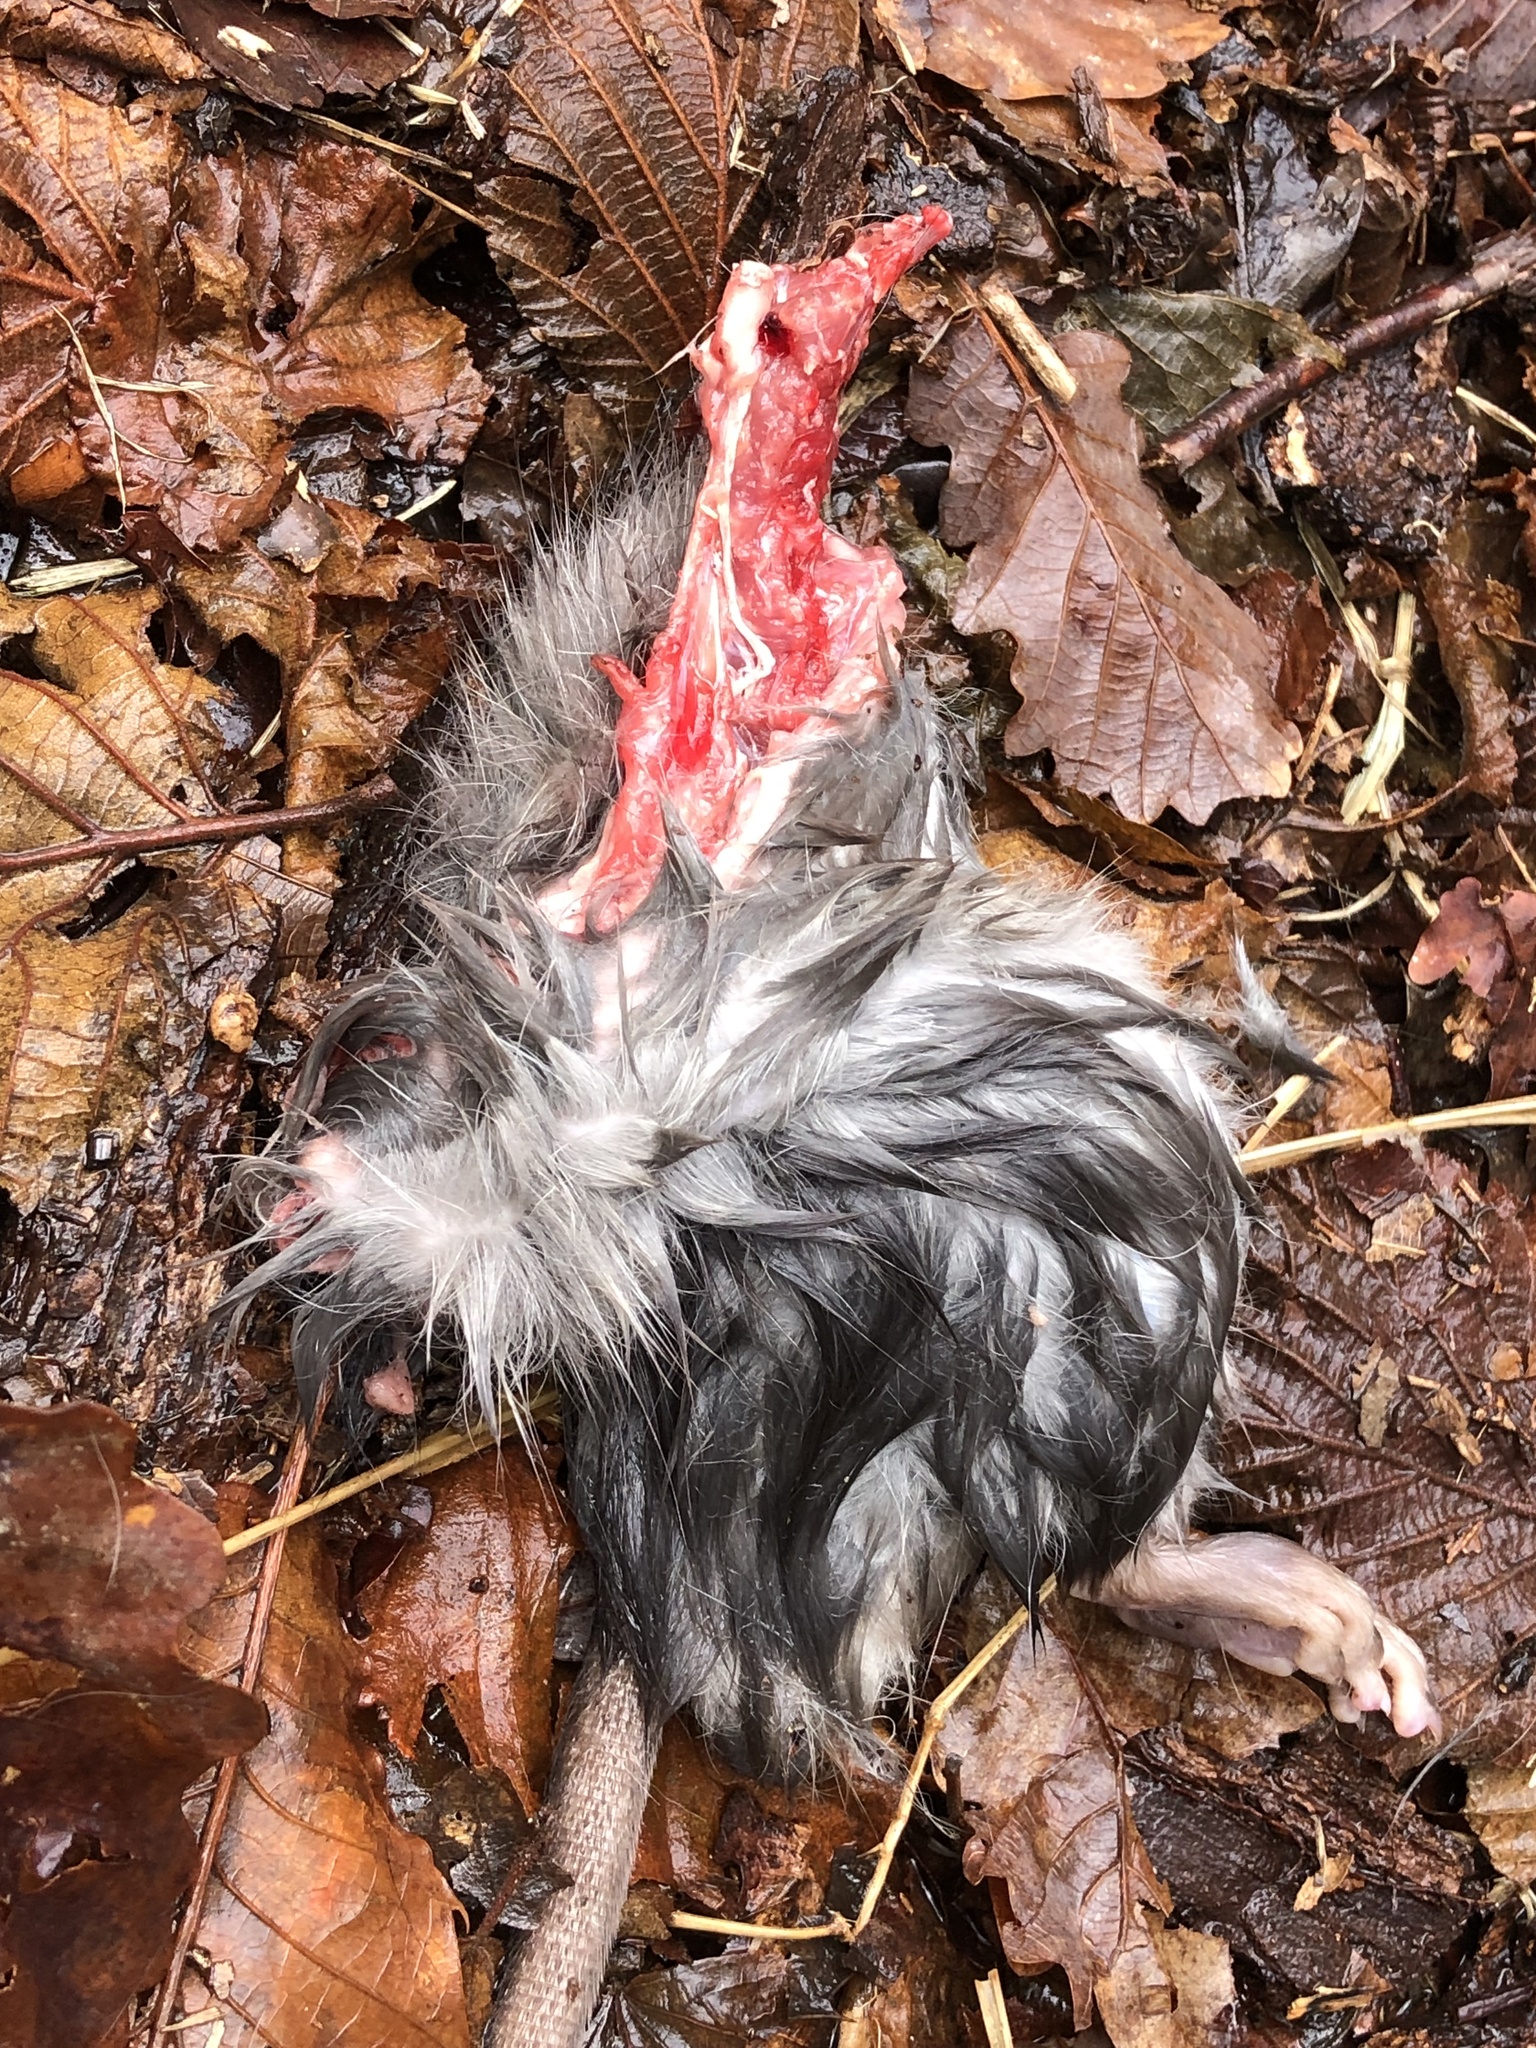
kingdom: Animalia
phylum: Chordata
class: Mammalia
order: Rodentia
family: Muridae
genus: Rattus
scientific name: Rattus rattus
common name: Black rat
